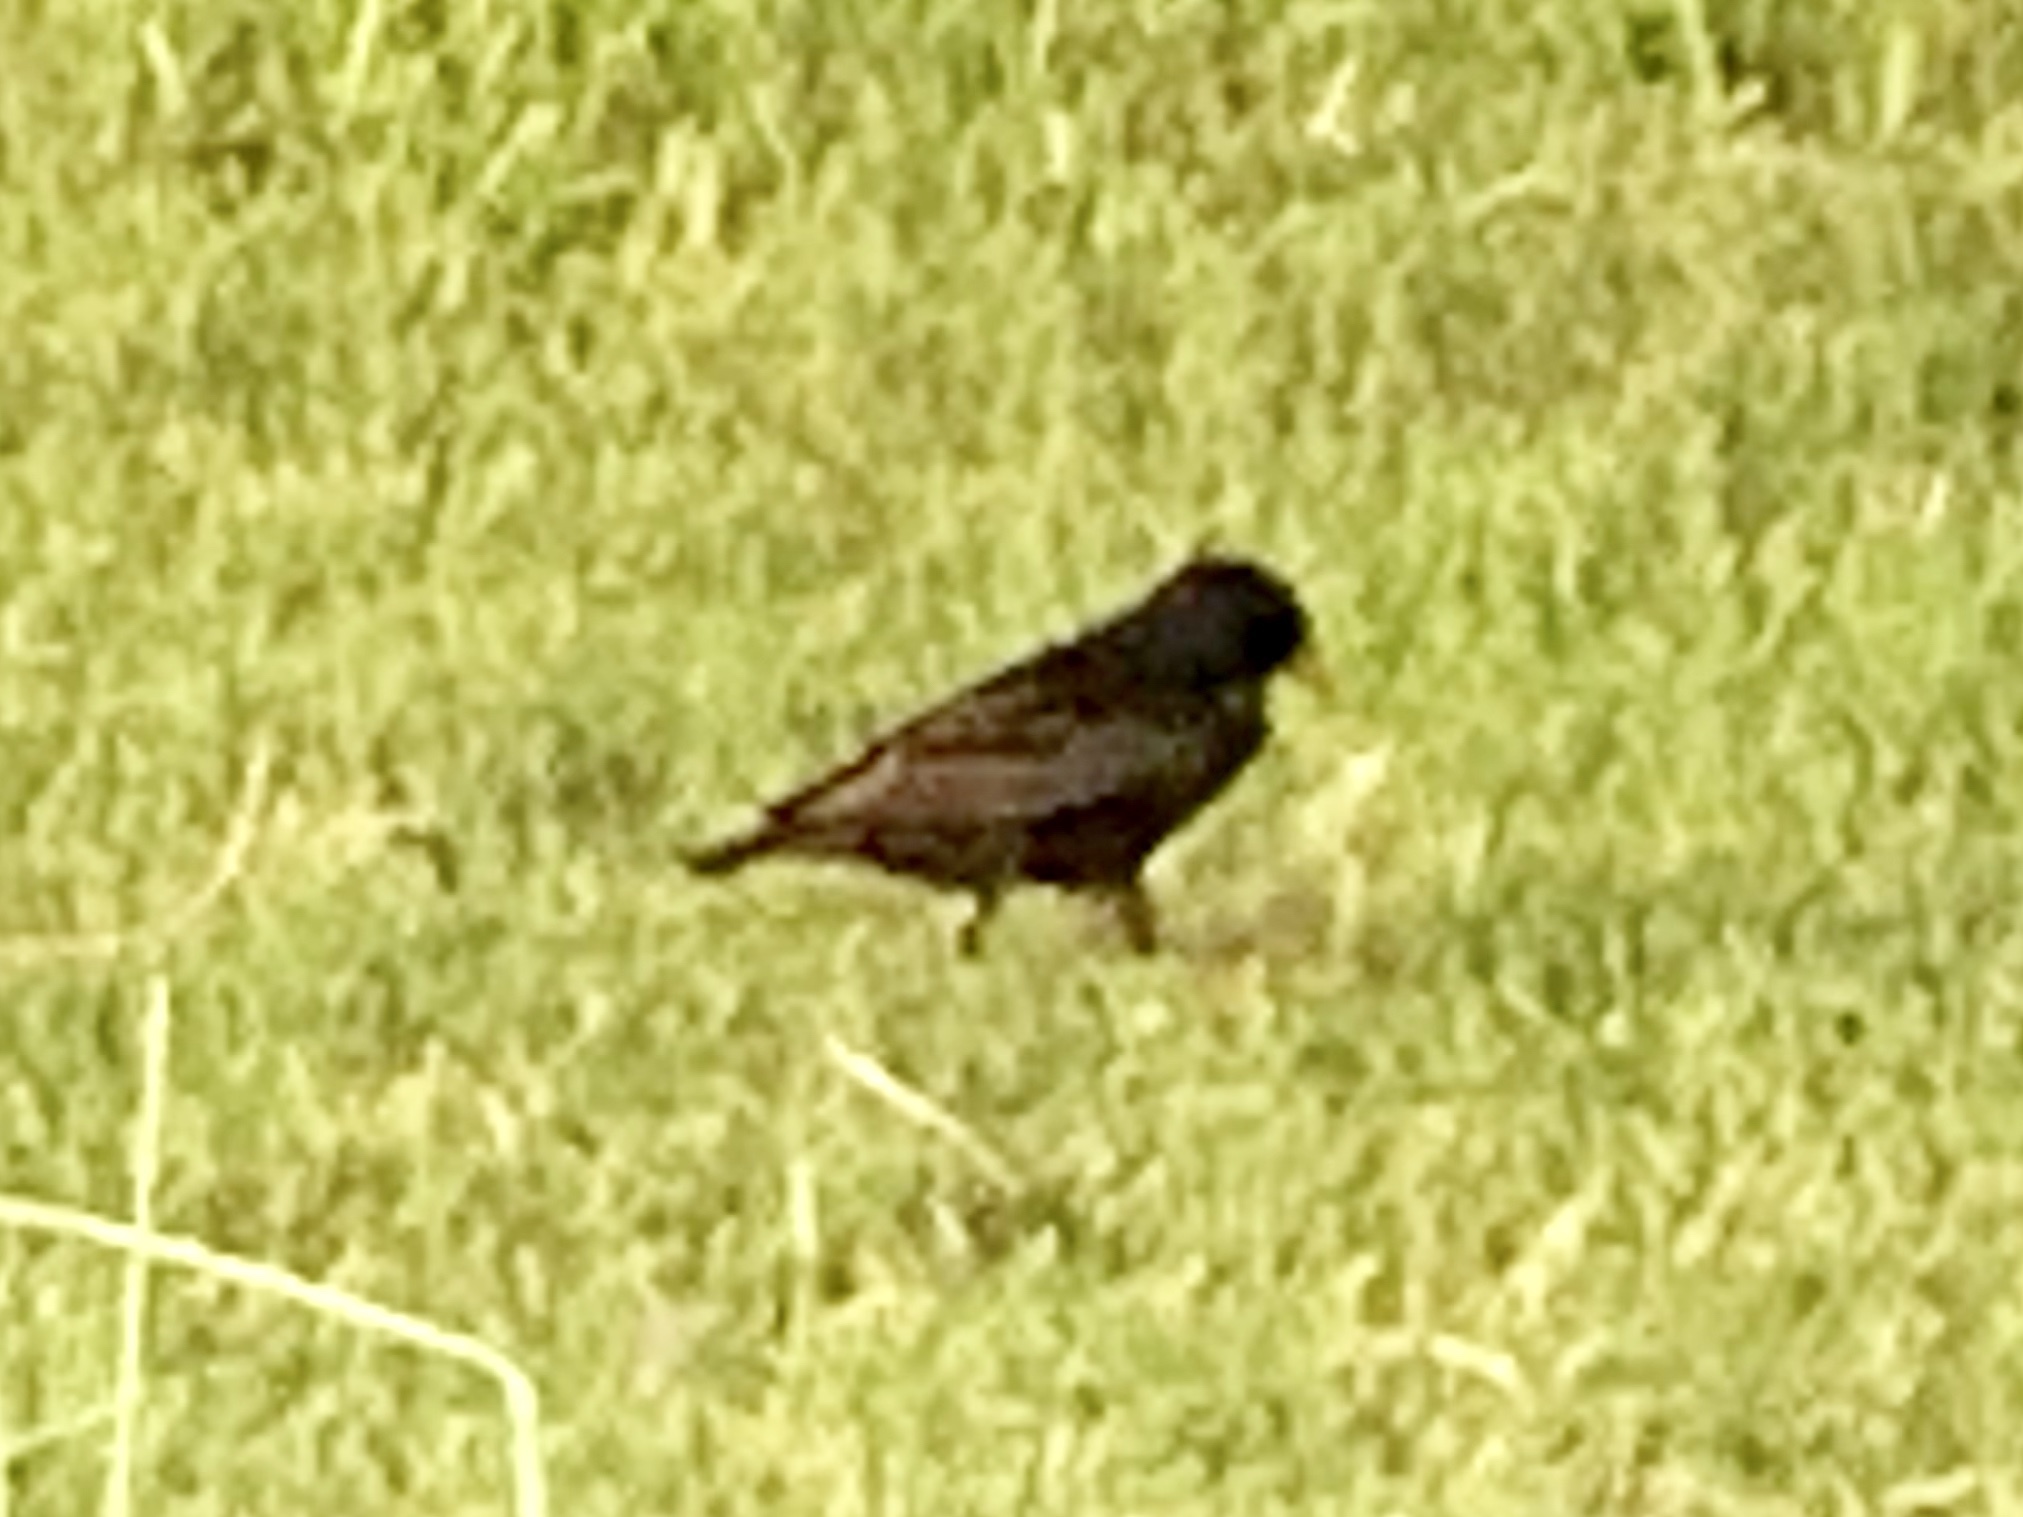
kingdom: Animalia
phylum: Chordata
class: Aves
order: Passeriformes
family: Sturnidae
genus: Sturnus
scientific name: Sturnus vulgaris
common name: Common starling
